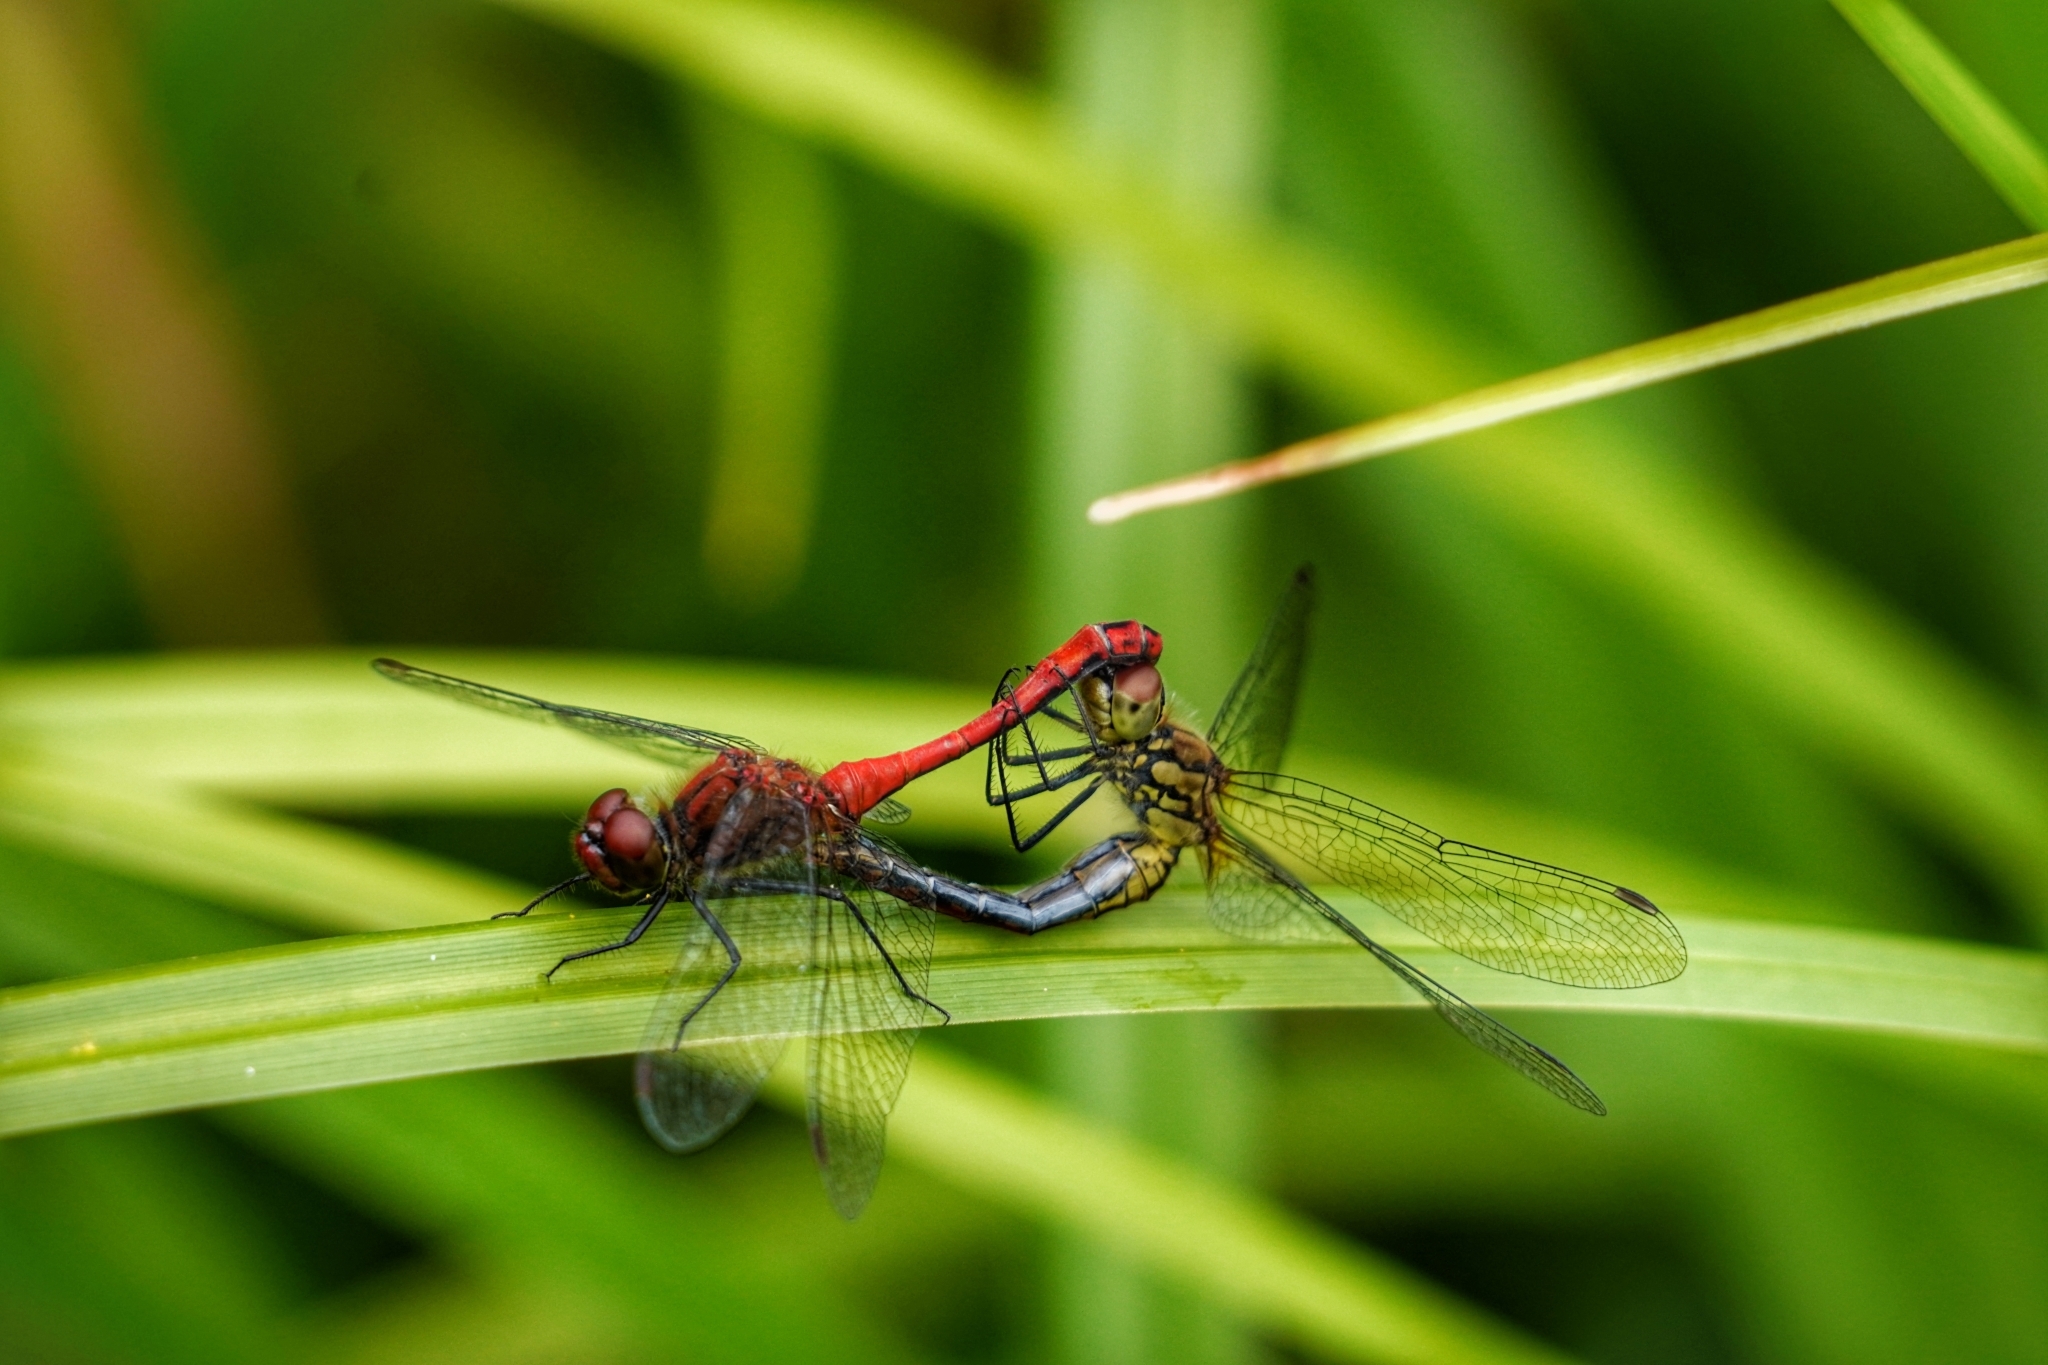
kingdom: Animalia
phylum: Arthropoda
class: Insecta
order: Odonata
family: Libellulidae
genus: Sympetrum
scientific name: Sympetrum sanguineum
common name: Ruddy darter
